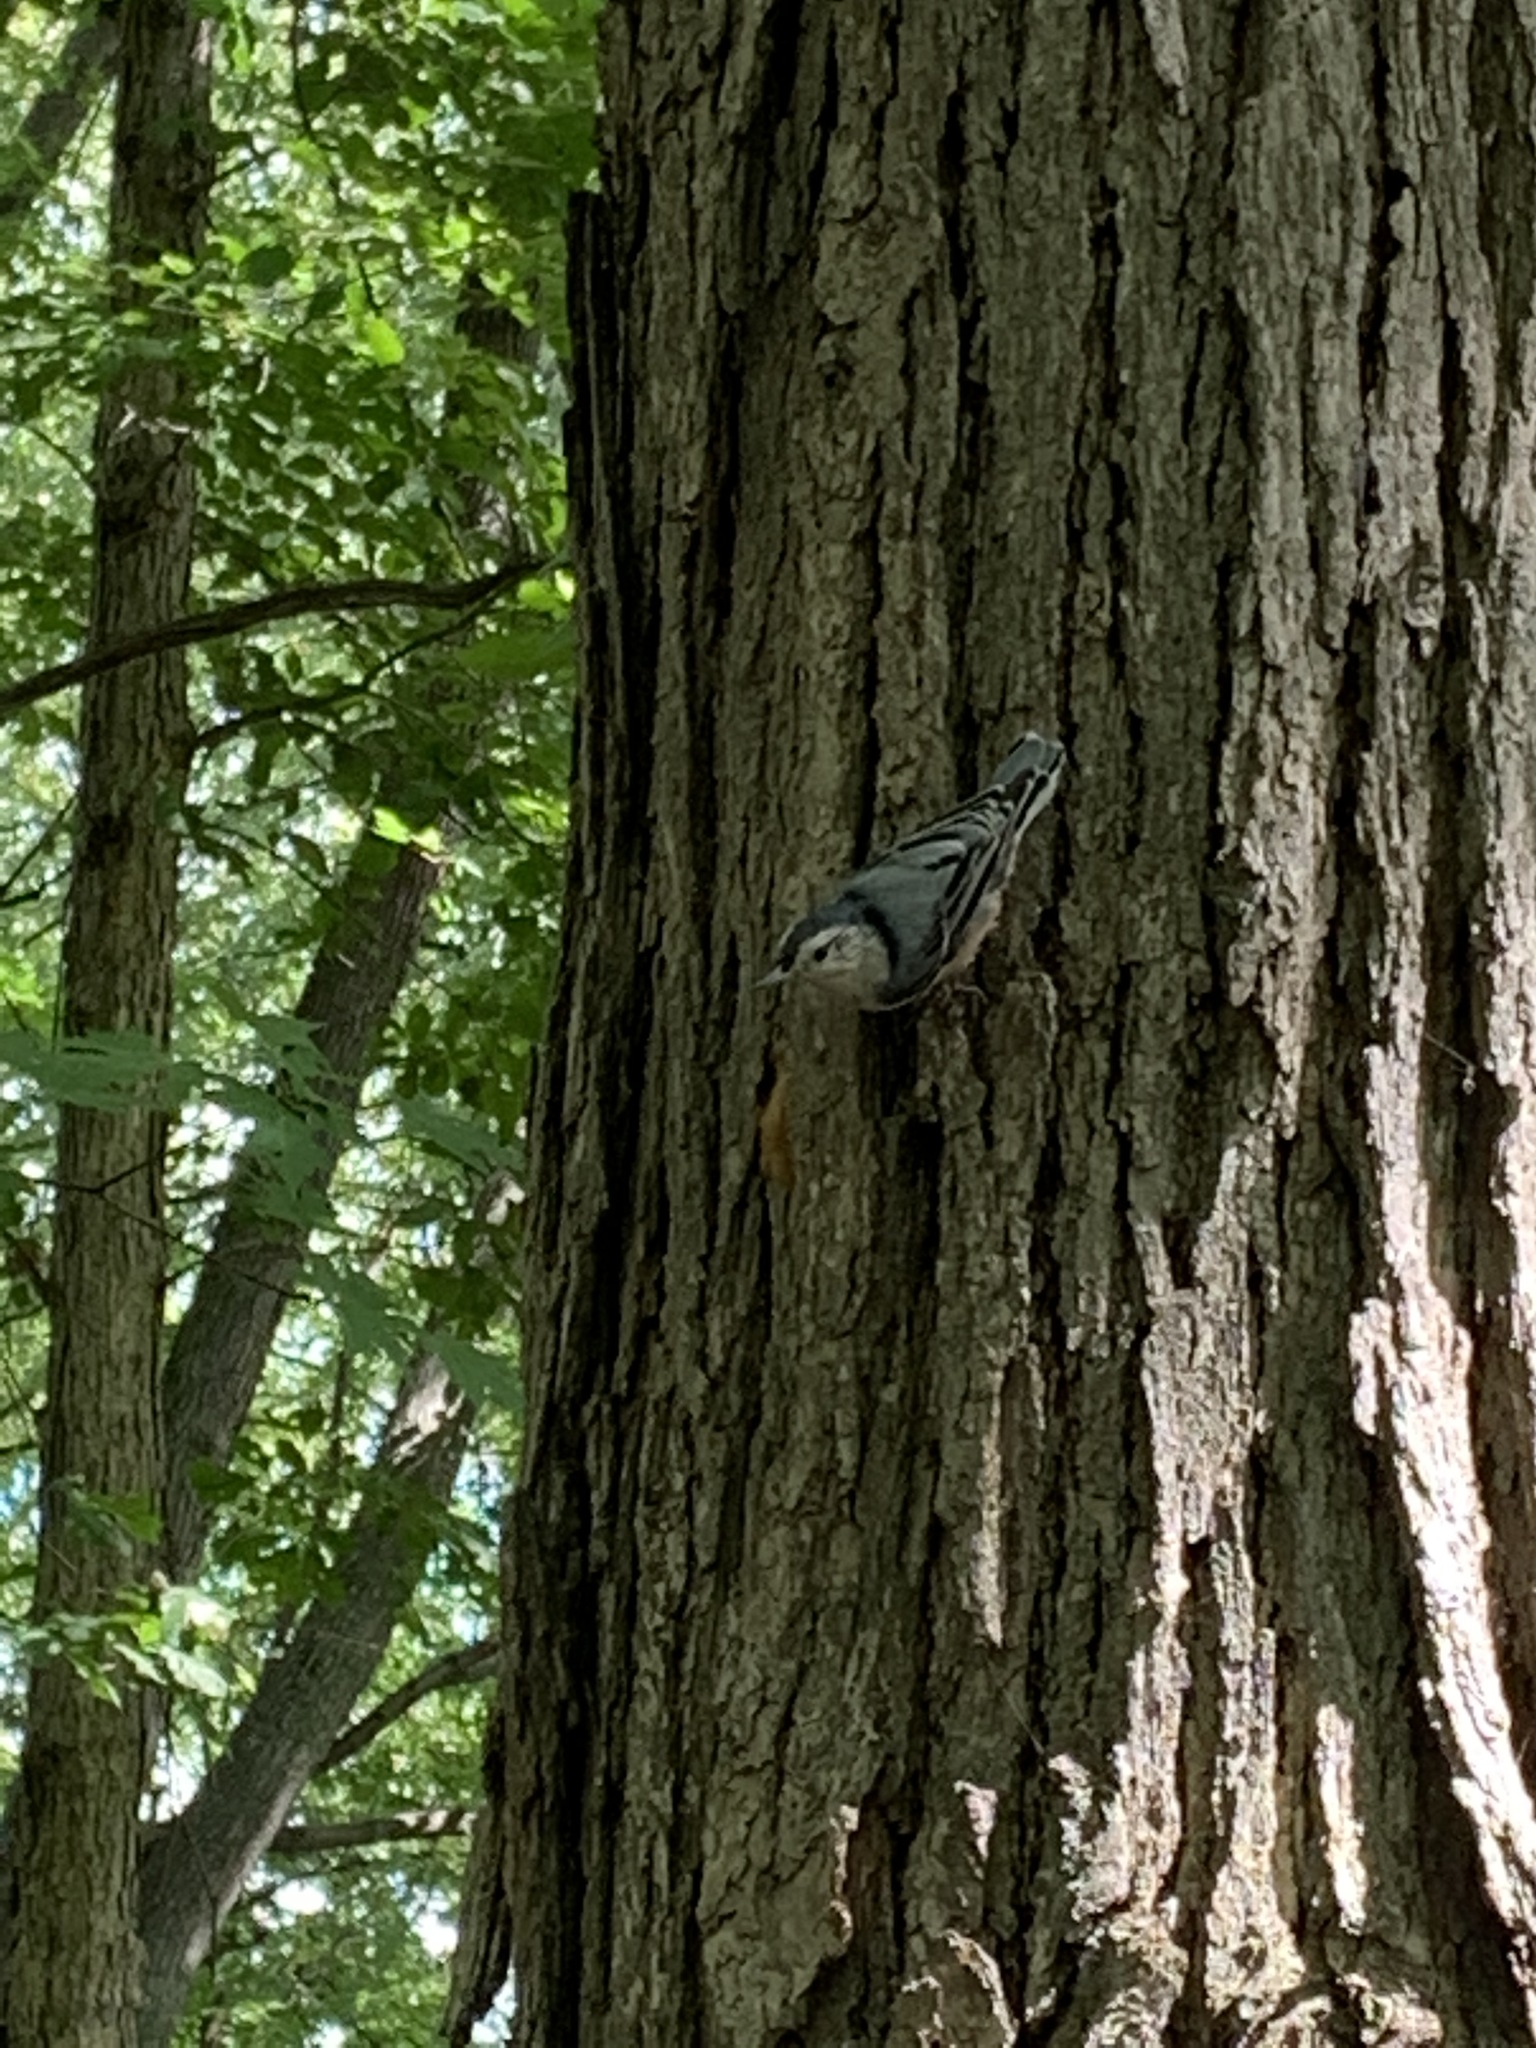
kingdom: Animalia
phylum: Chordata
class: Aves
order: Passeriformes
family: Sittidae
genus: Sitta
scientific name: Sitta carolinensis
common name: White-breasted nuthatch
